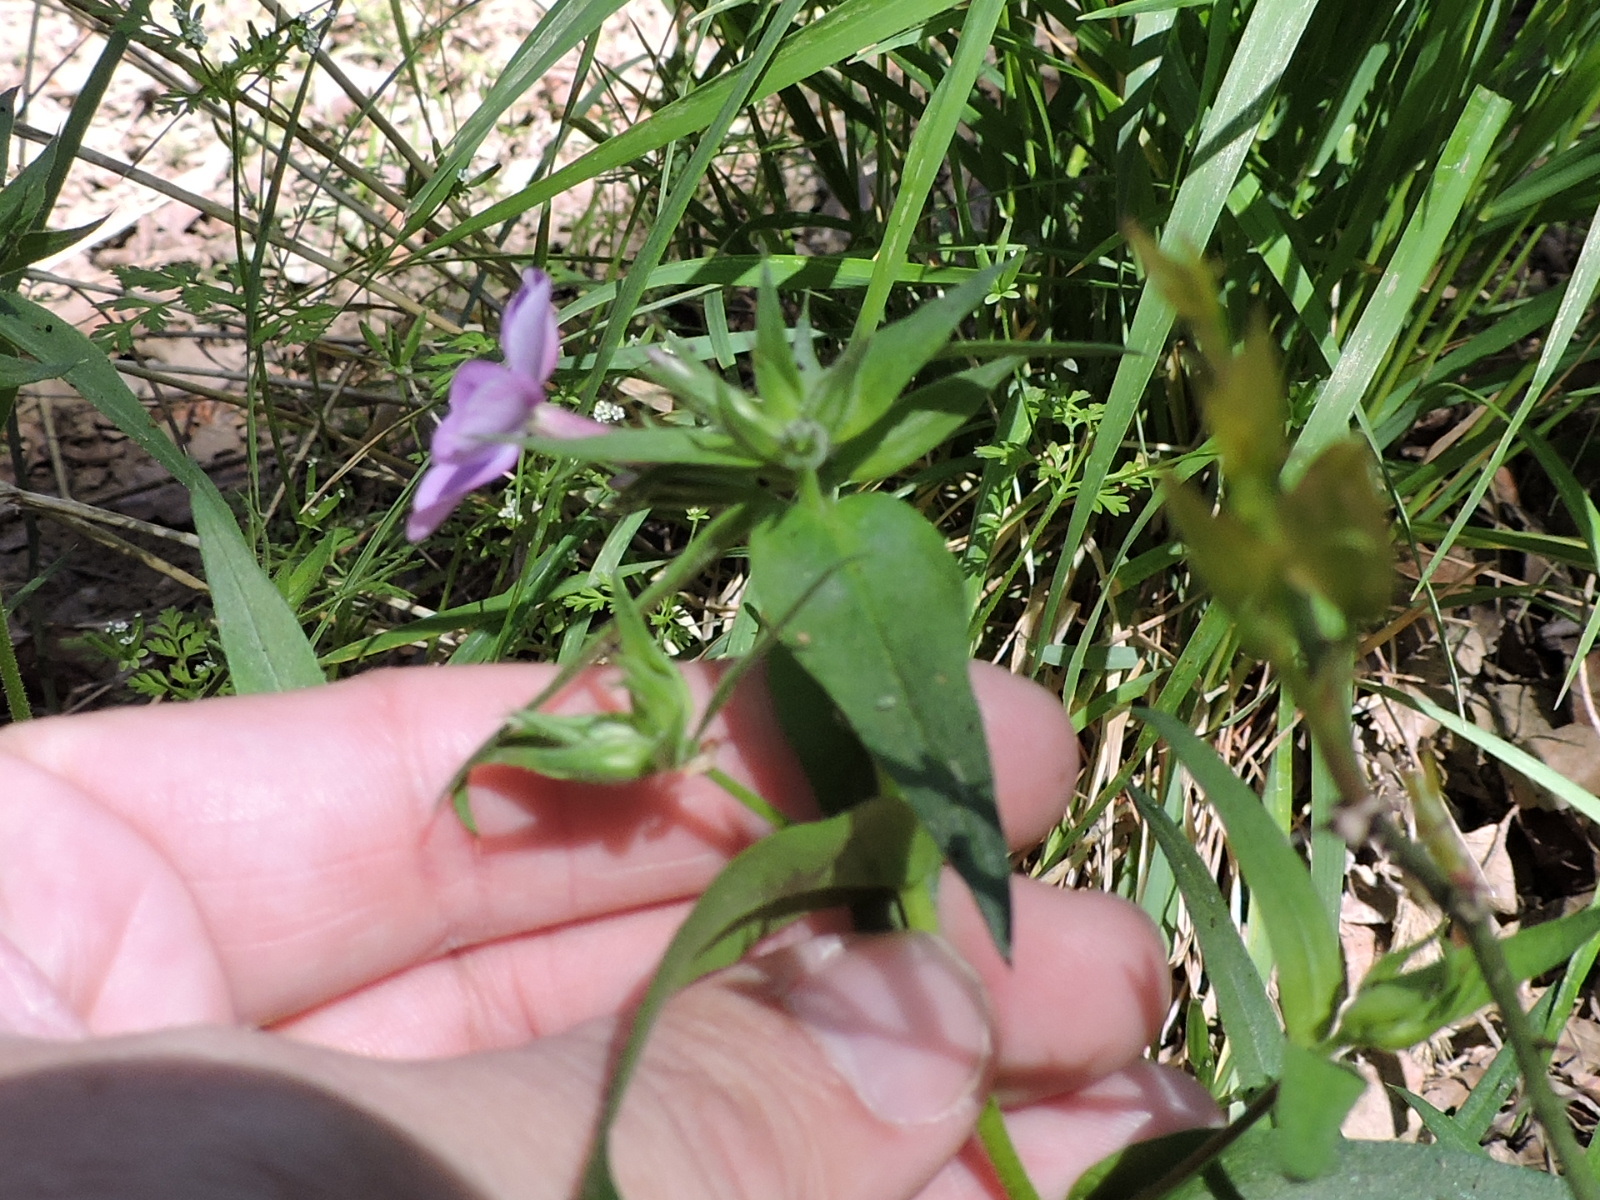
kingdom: Plantae
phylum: Tracheophyta
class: Magnoliopsida
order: Ericales
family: Polemoniaceae
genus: Phlox
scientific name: Phlox pilosa
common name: Prairie phlox
